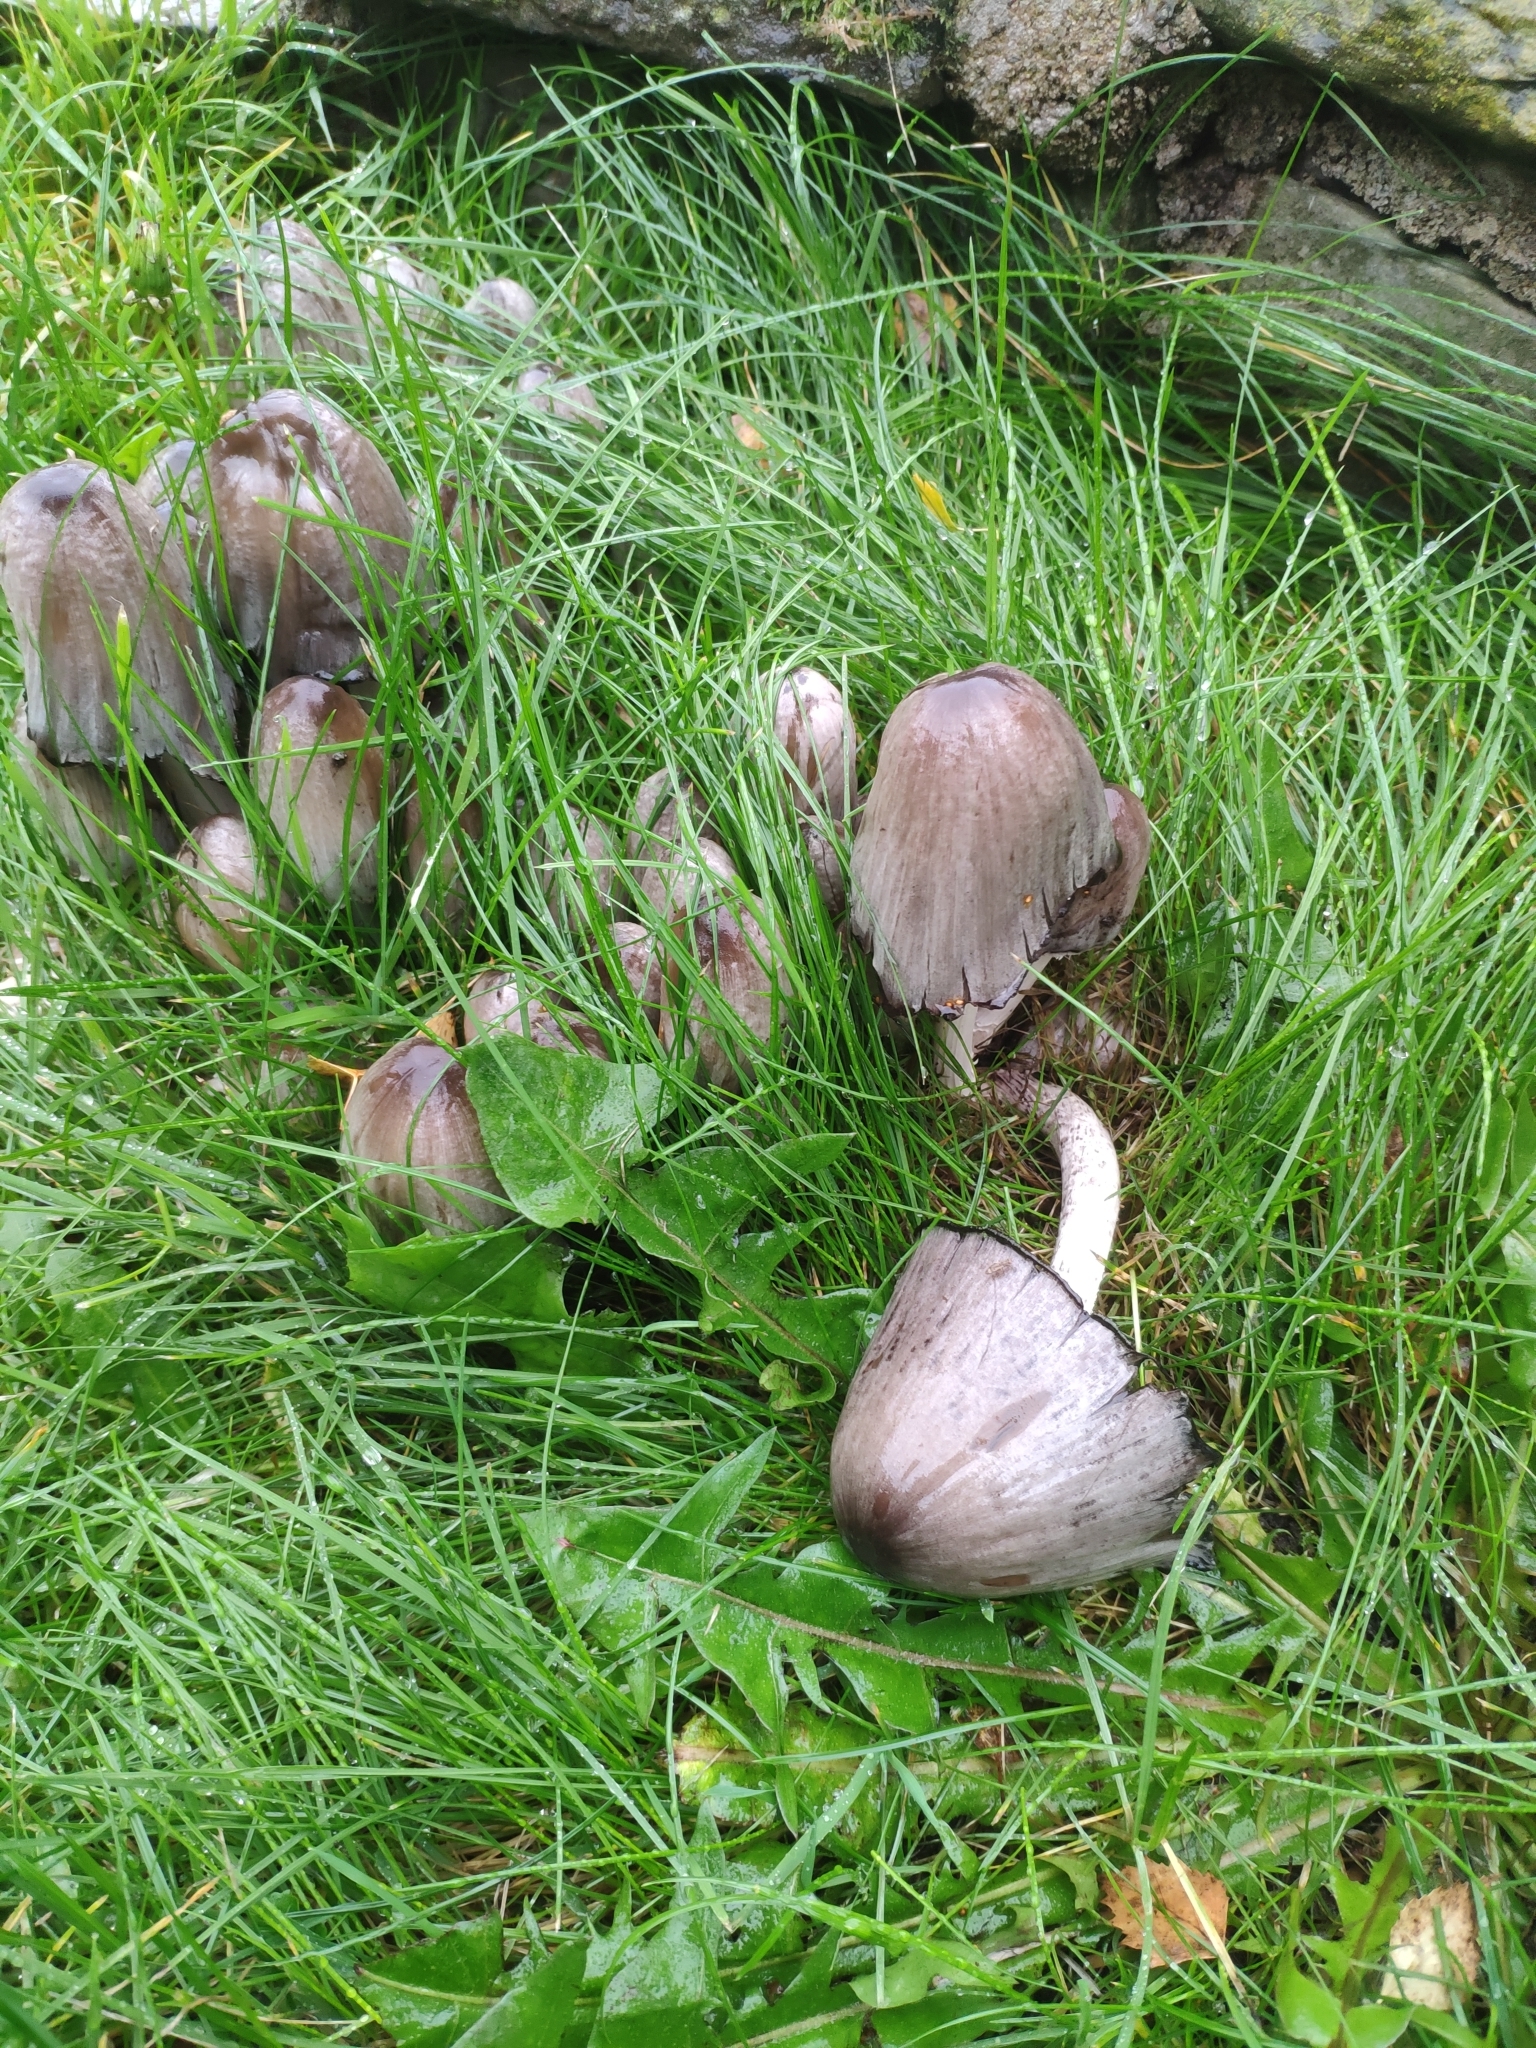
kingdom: Fungi
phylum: Basidiomycota
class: Agaricomycetes
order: Agaricales
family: Psathyrellaceae
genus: Coprinopsis
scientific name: Coprinopsis atramentaria
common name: Common ink-cap
